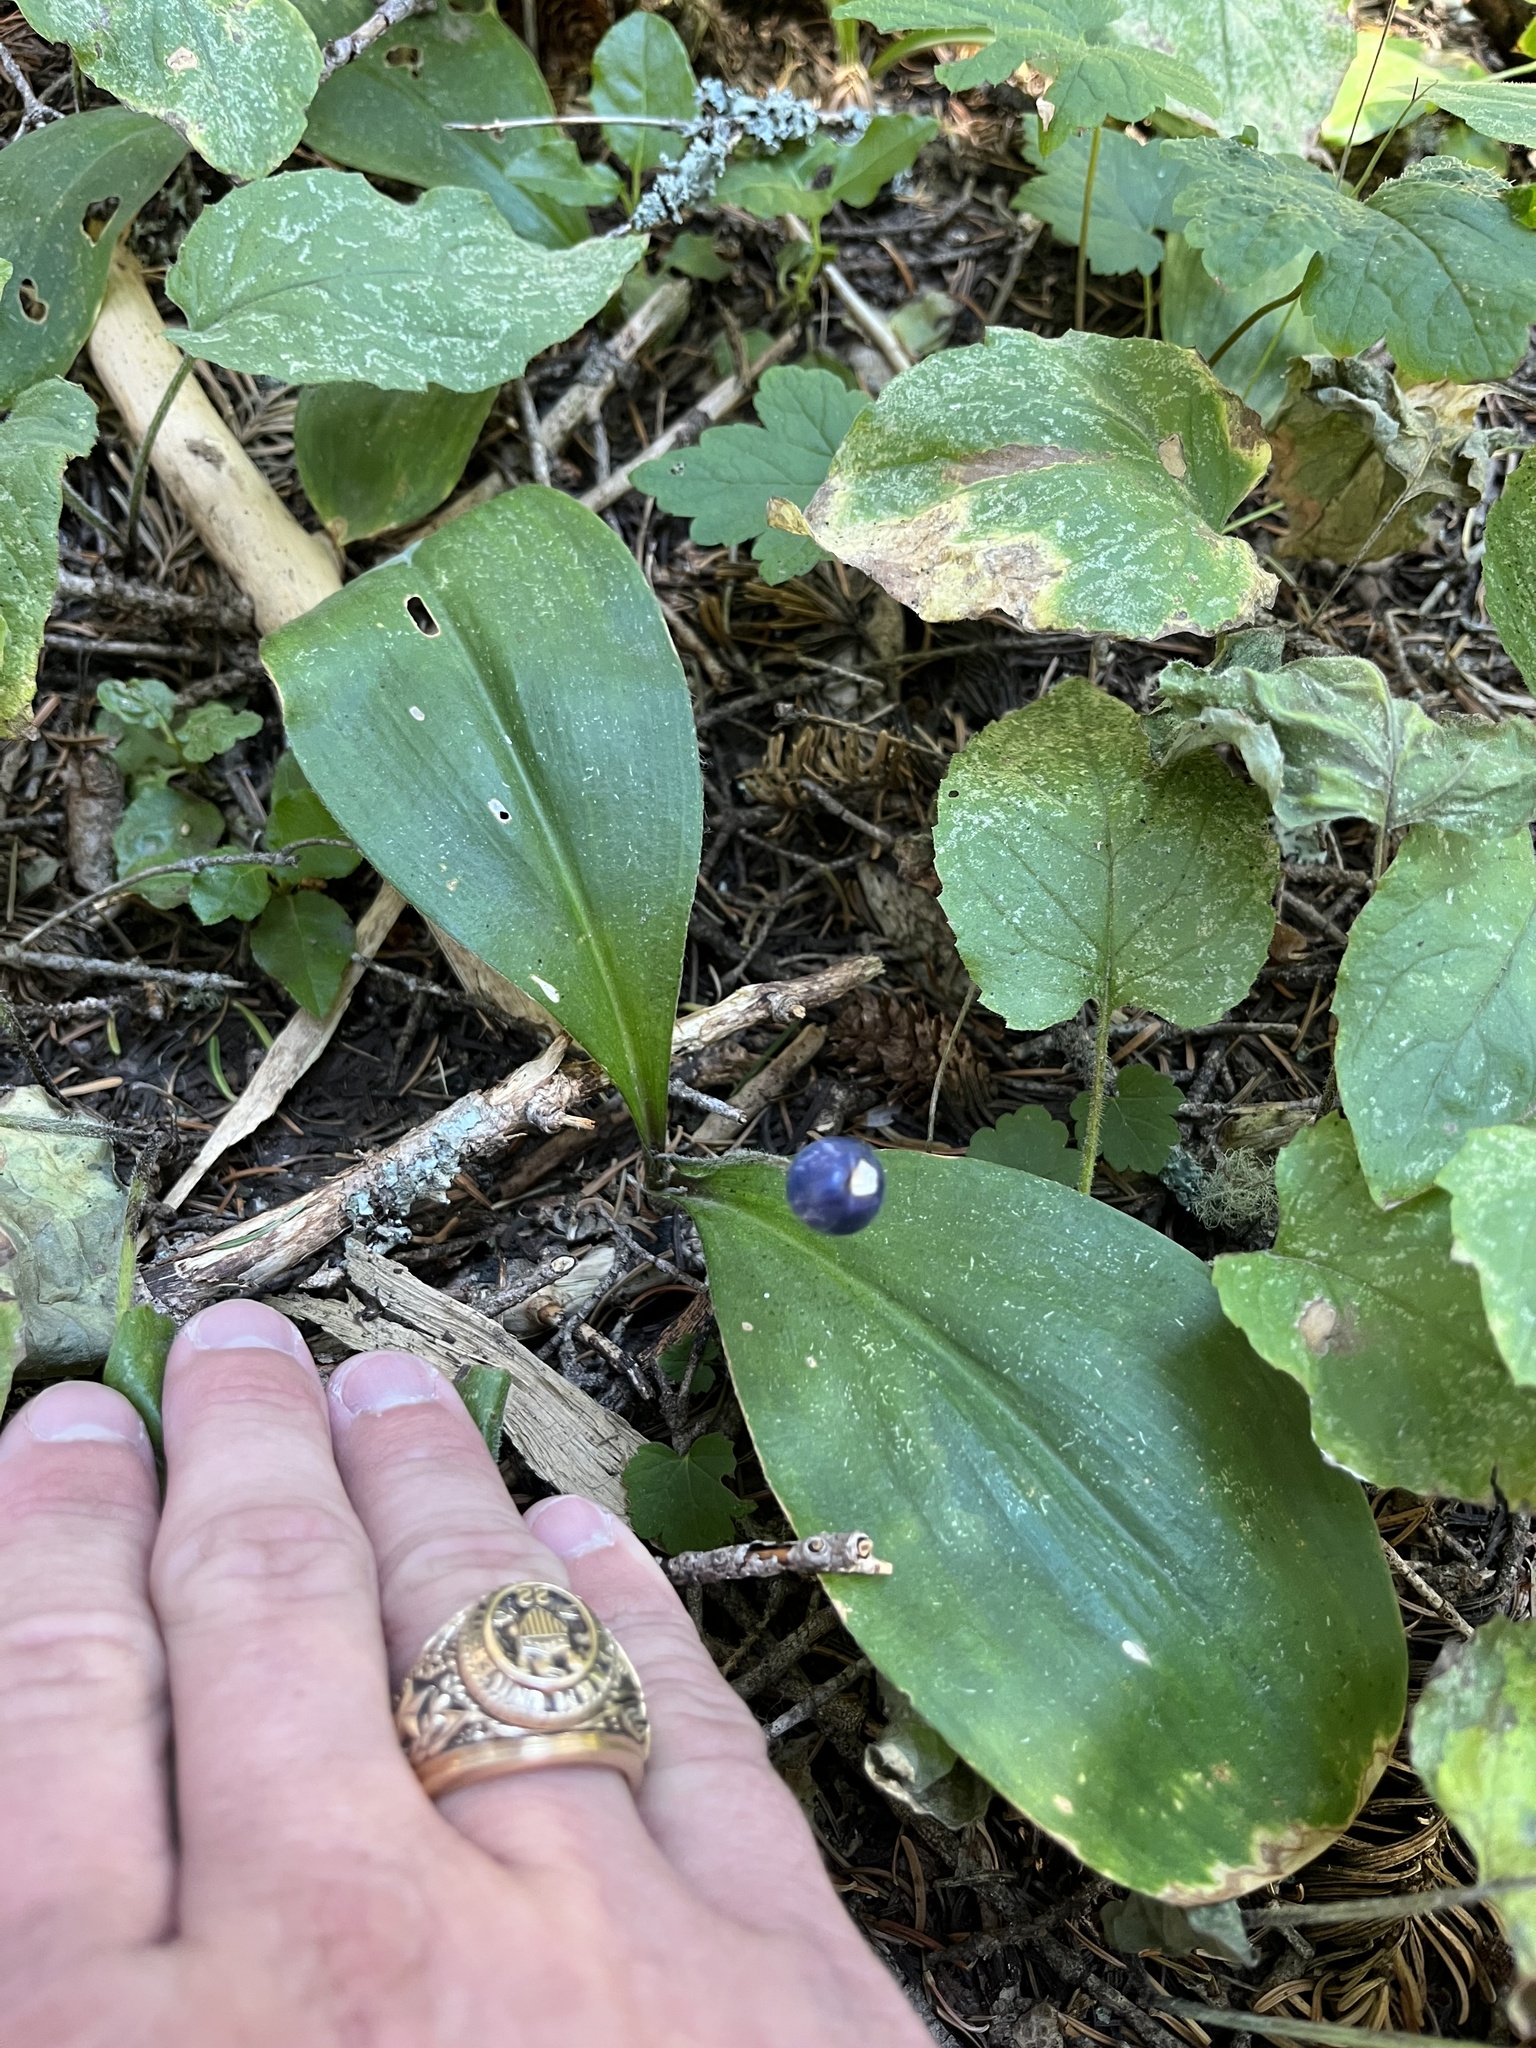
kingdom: Plantae
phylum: Tracheophyta
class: Liliopsida
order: Liliales
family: Liliaceae
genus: Clintonia
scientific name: Clintonia uniflora
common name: Queen's cup
